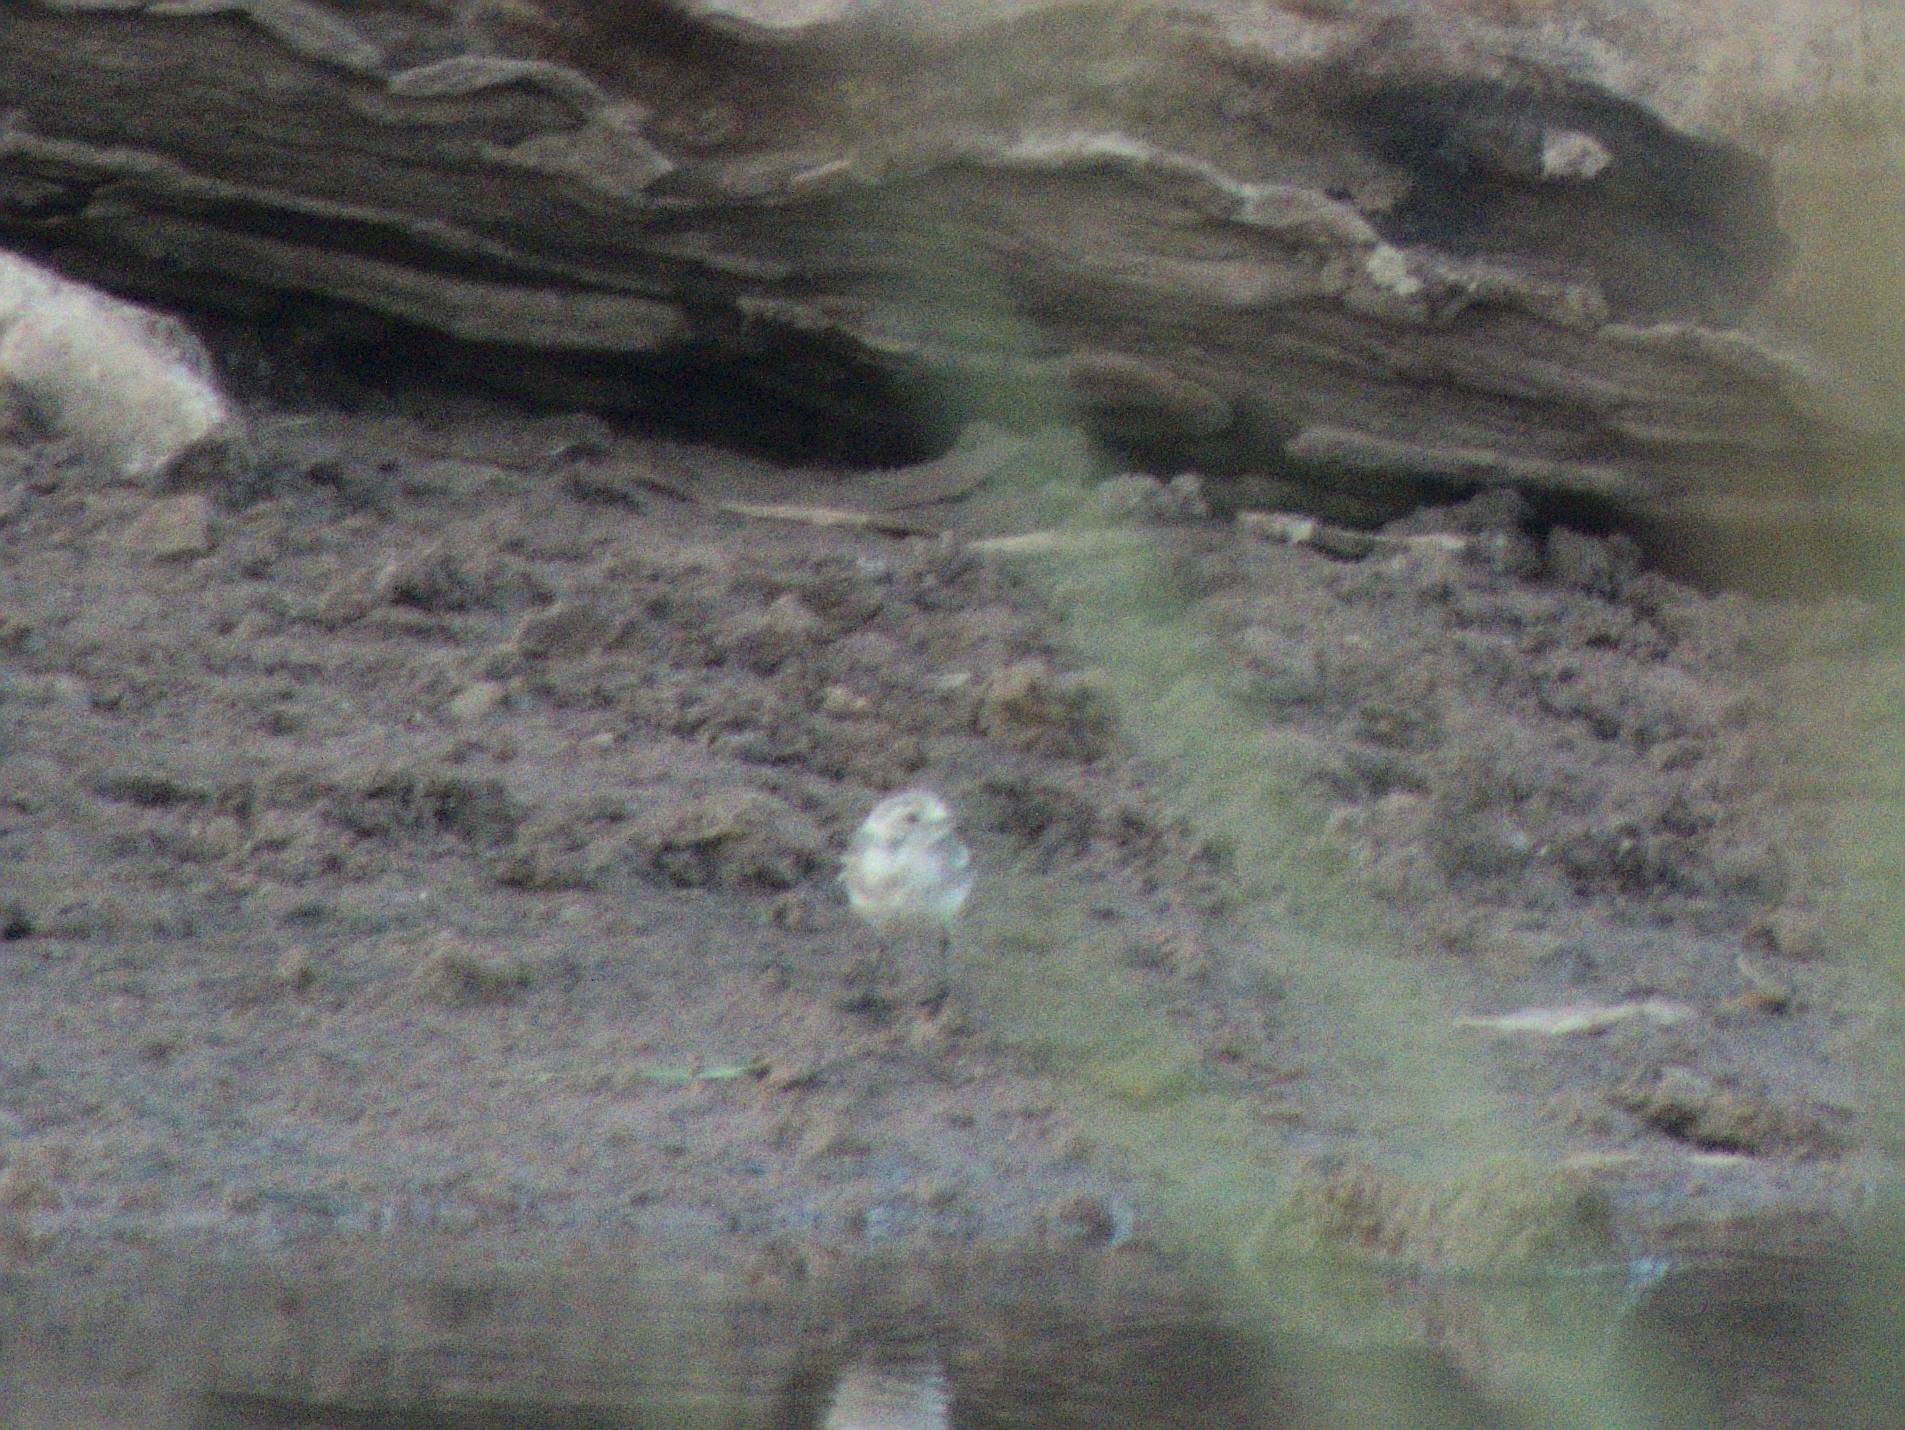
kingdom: Animalia
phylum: Chordata
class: Aves
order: Passeriformes
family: Motacillidae
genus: Motacilla
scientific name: Motacilla alba
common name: White wagtail
